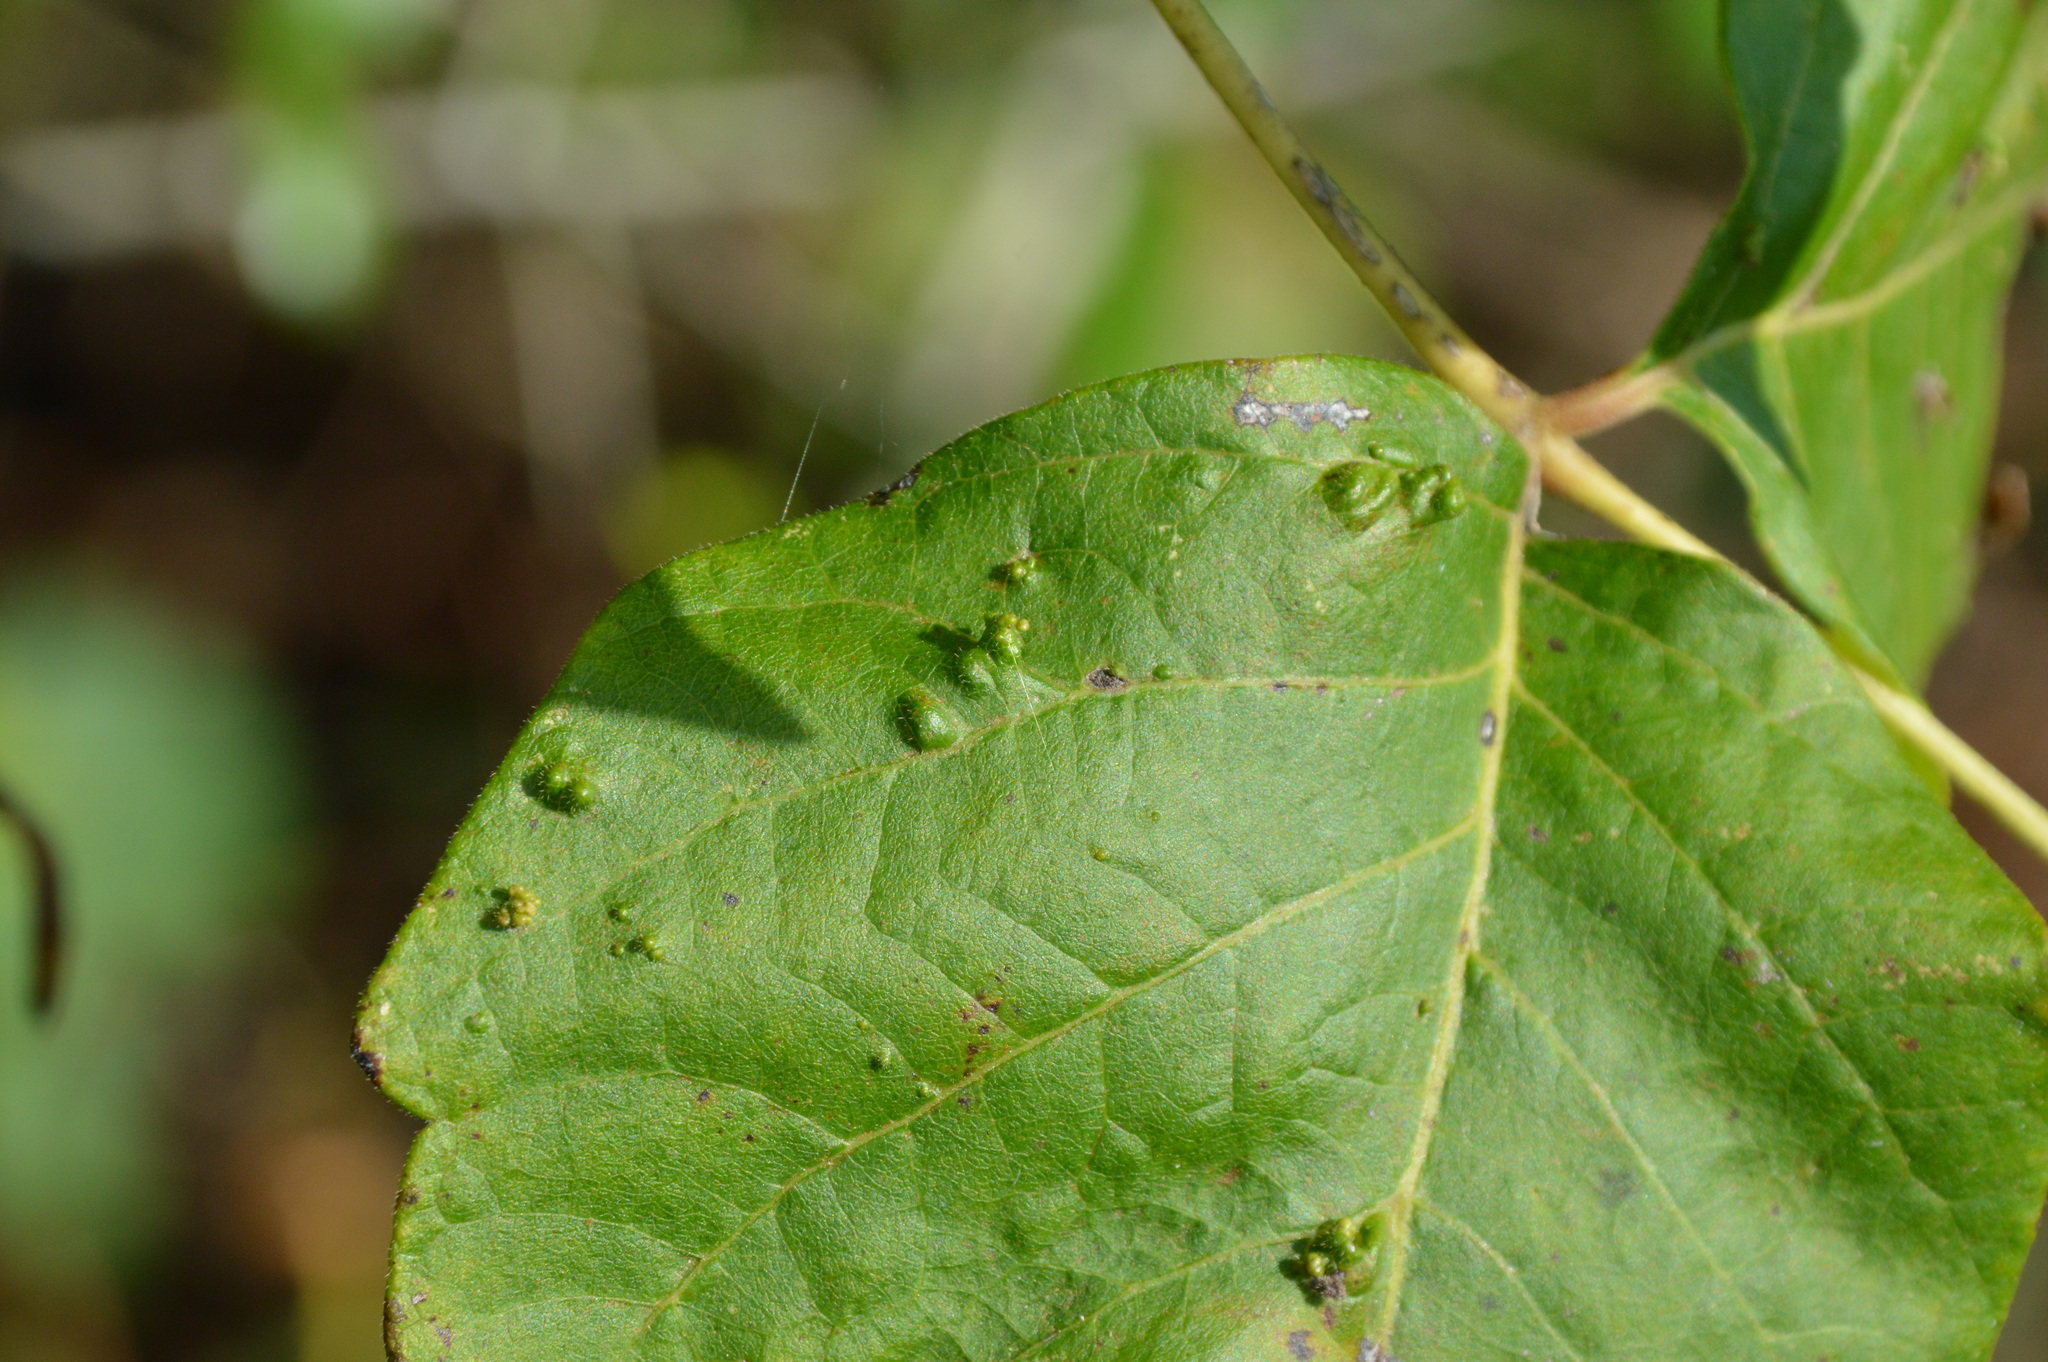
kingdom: Animalia
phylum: Arthropoda
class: Arachnida
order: Trombidiformes
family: Eriophyidae
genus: Aculops
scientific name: Aculops
